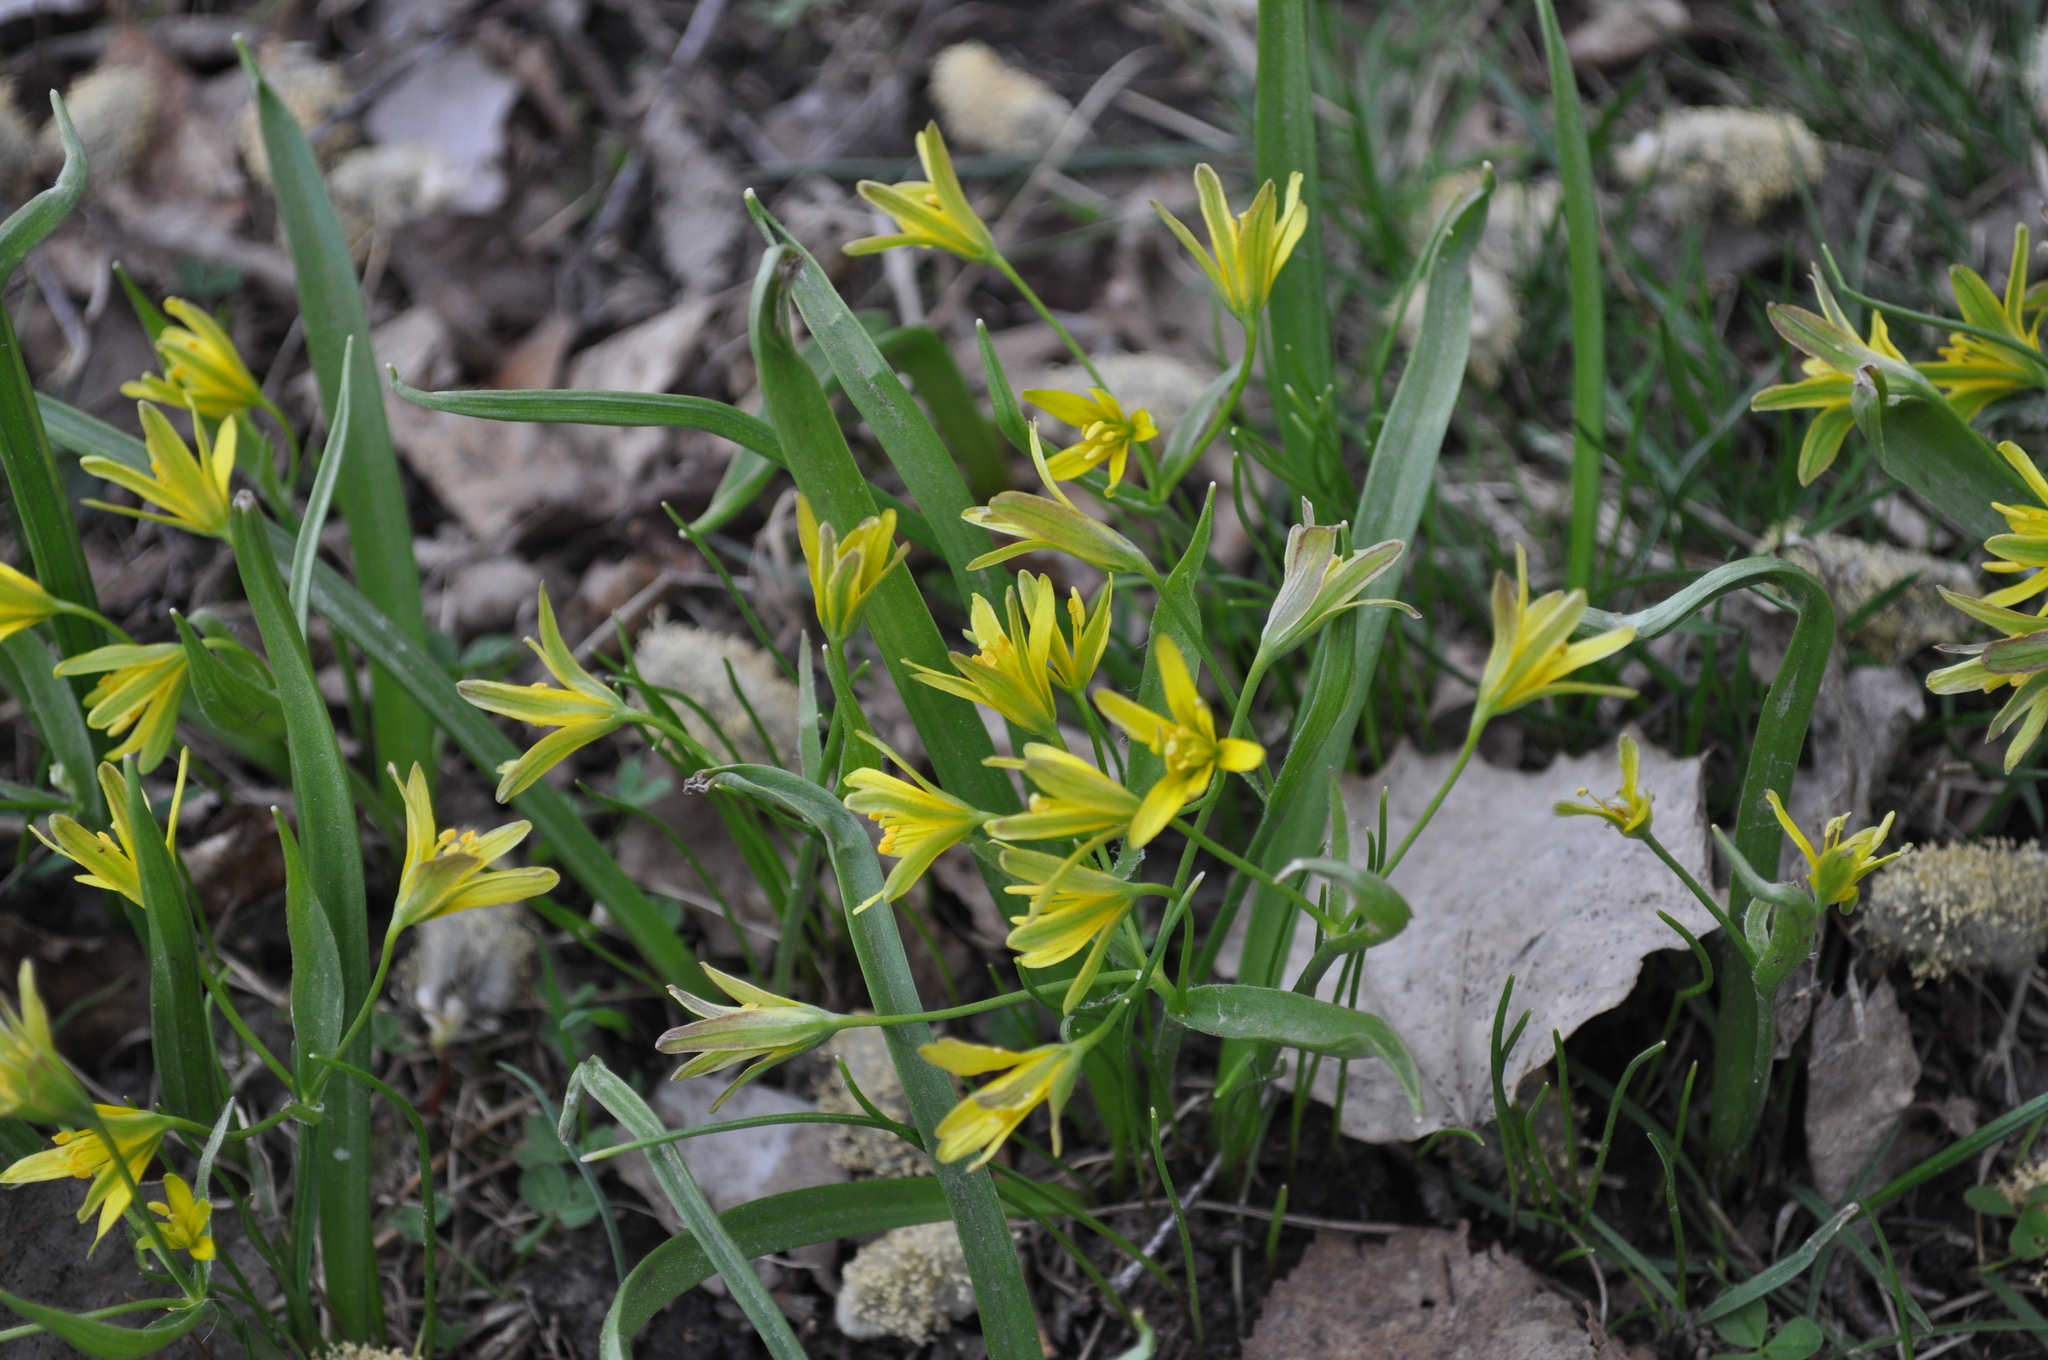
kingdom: Plantae
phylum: Tracheophyta
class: Liliopsida
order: Liliales
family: Liliaceae
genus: Gagea
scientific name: Gagea lutea
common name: Yellow star-of-bethlehem
